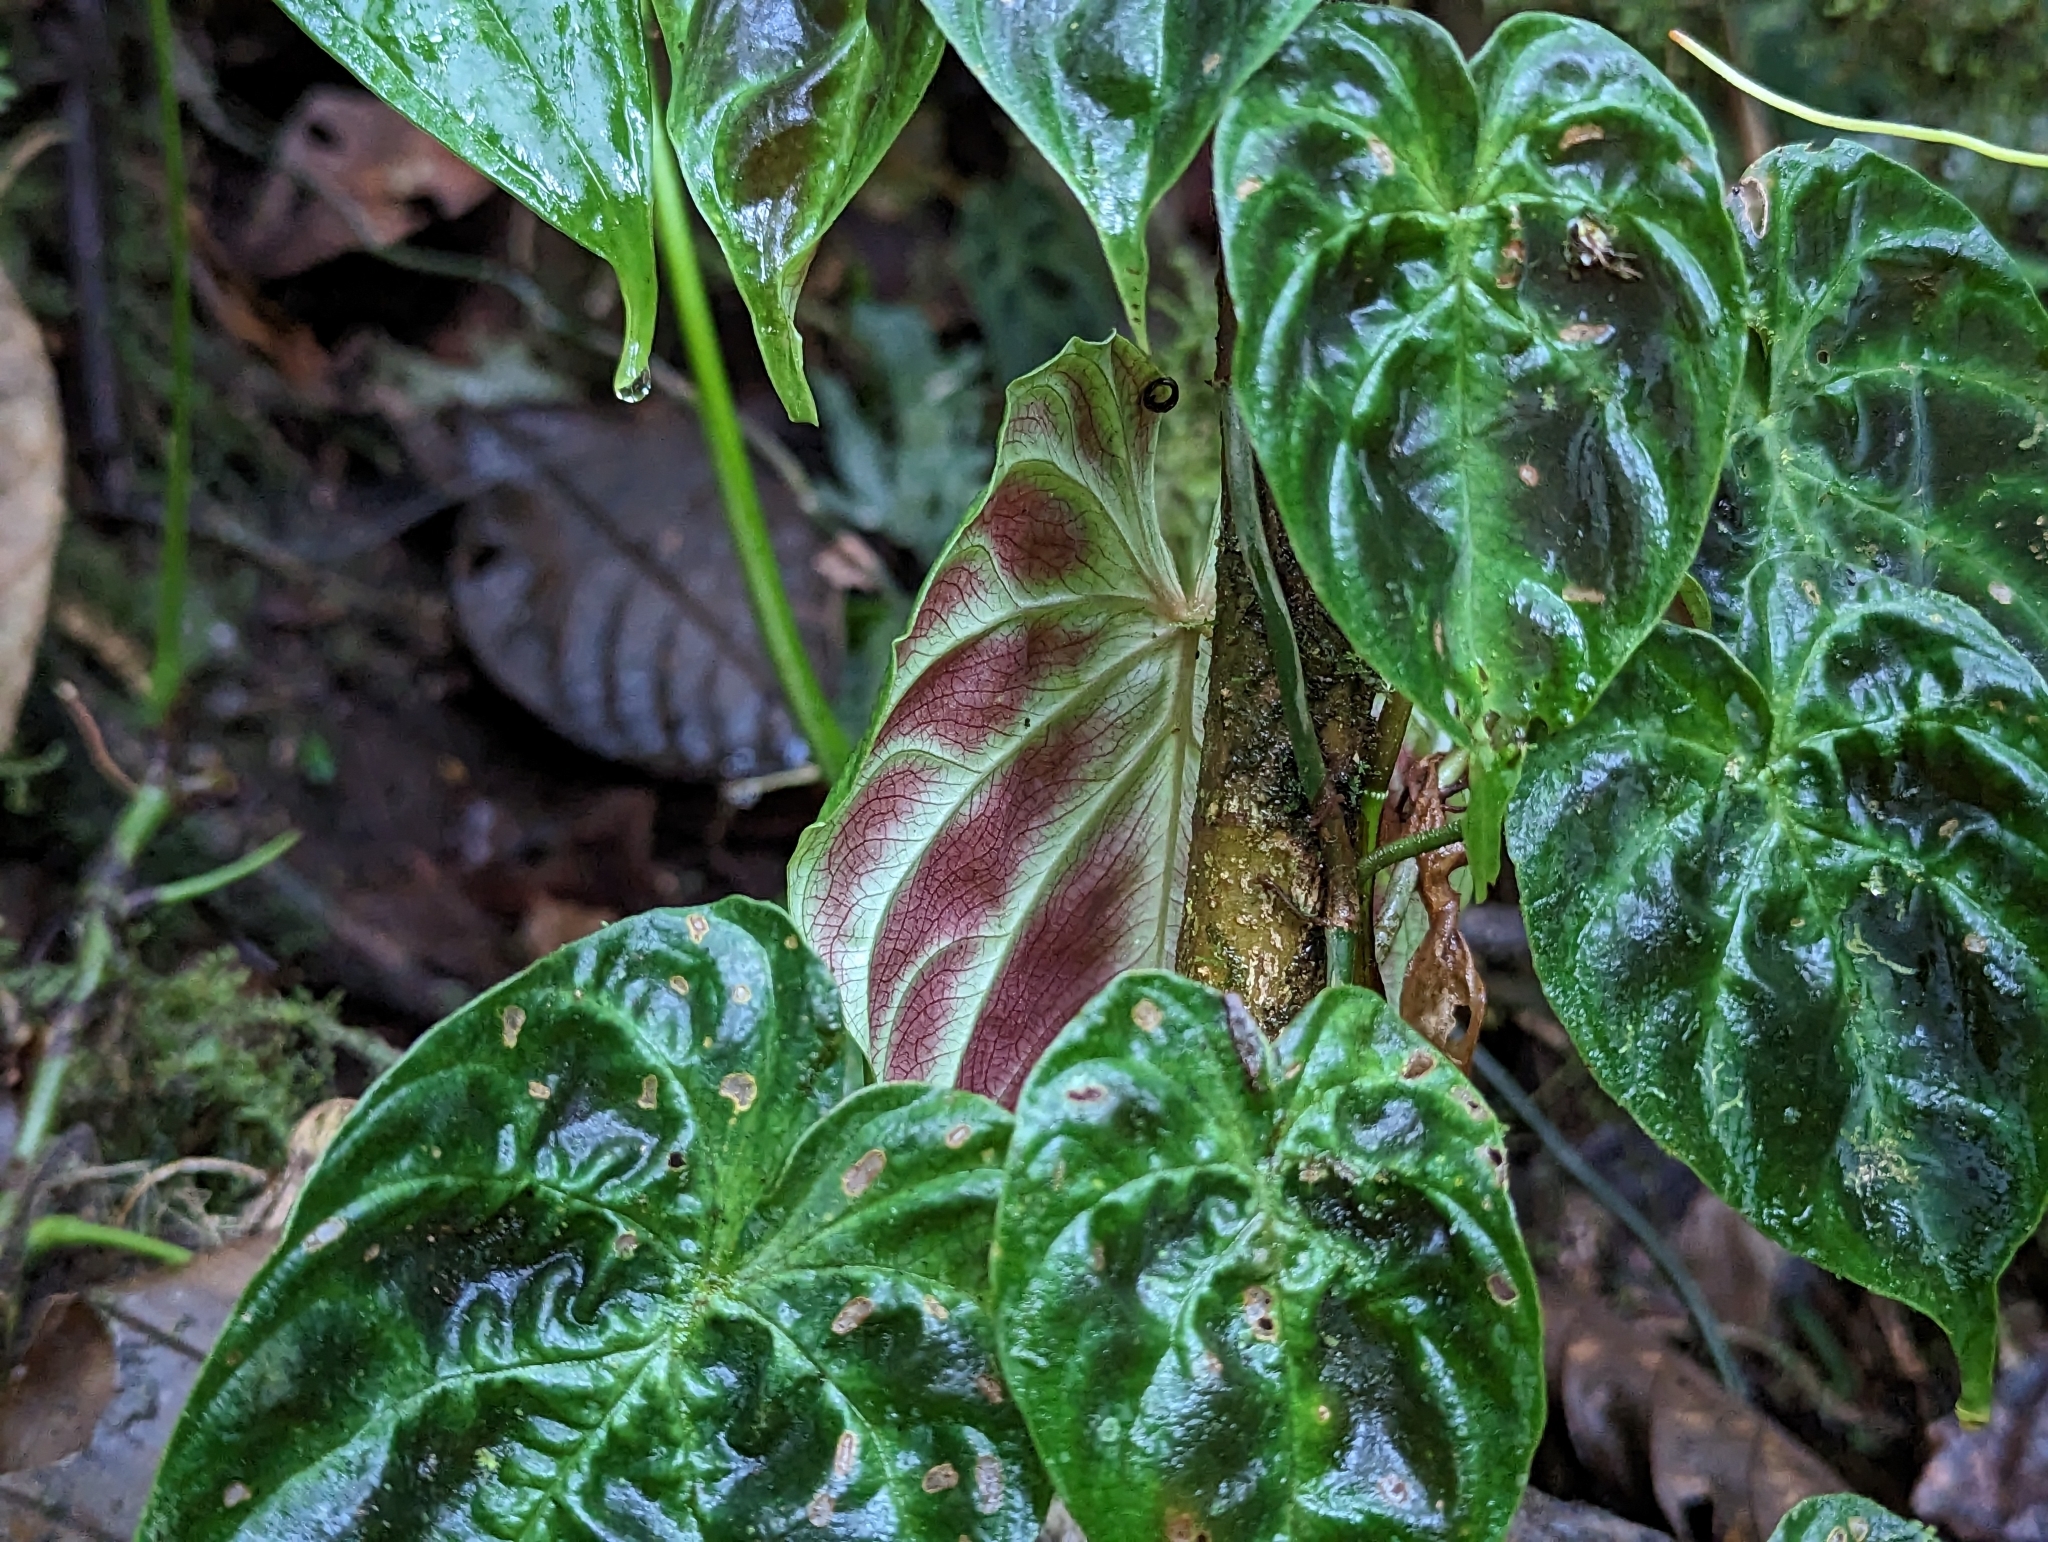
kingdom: Plantae
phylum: Tracheophyta
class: Liliopsida
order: Alismatales
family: Araceae
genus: Philodendron
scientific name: Philodendron verrucosum
